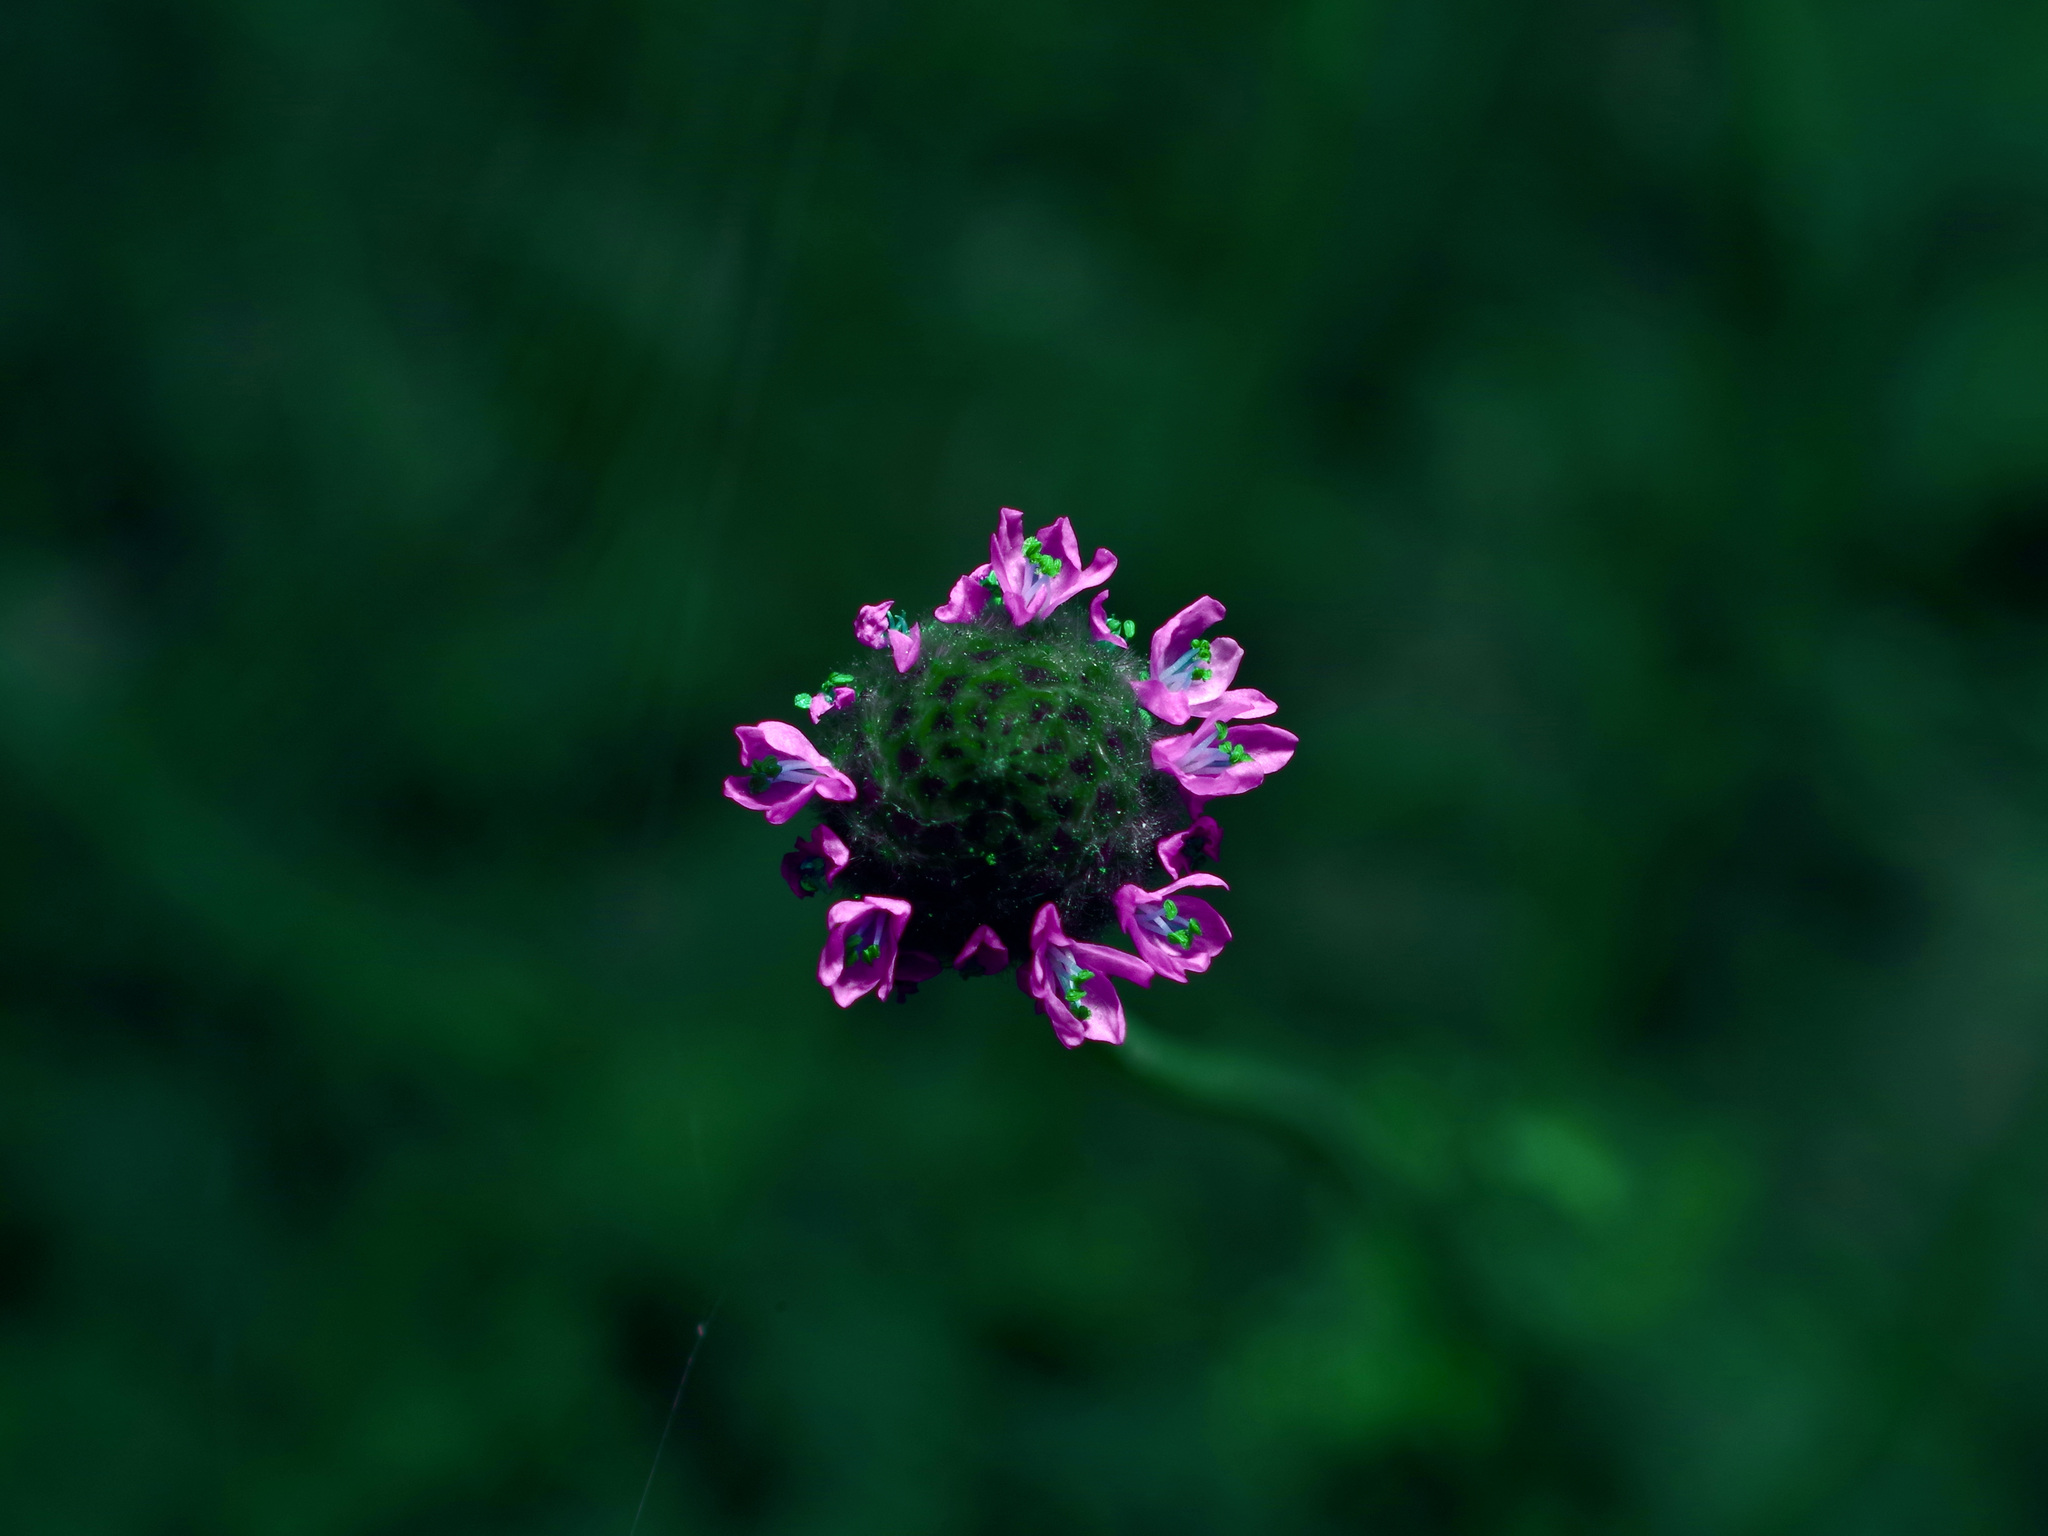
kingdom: Plantae
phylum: Tracheophyta
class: Magnoliopsida
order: Fabales
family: Fabaceae
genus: Dalea
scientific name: Dalea emarginata
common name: Wedgeleaf prairie clover
